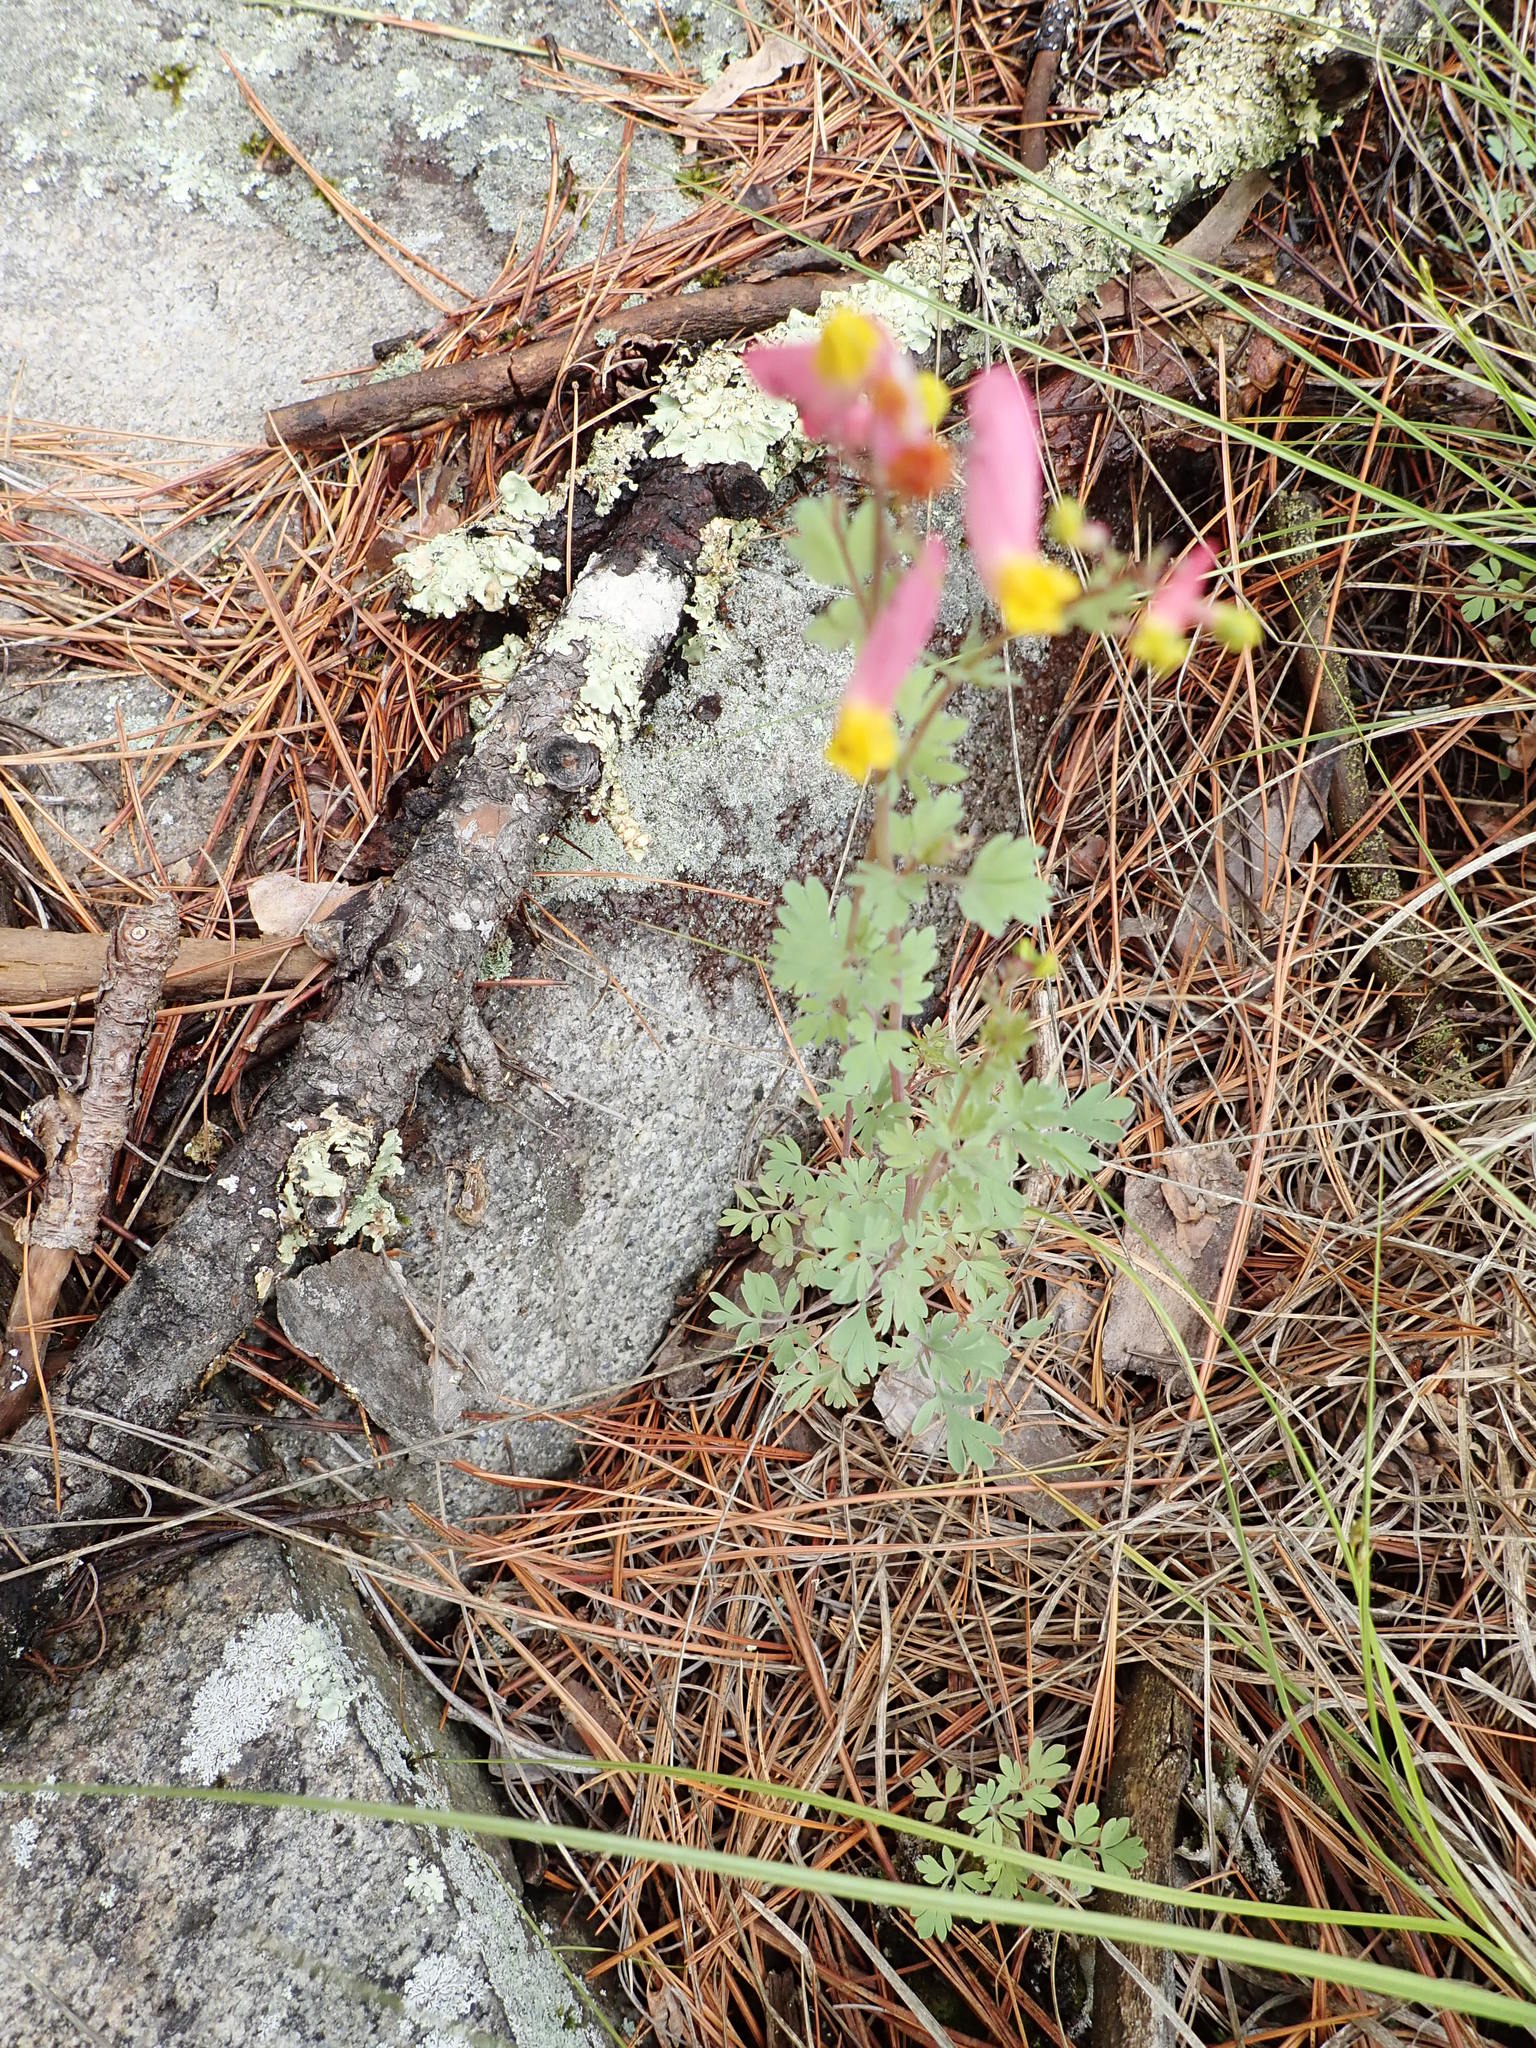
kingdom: Plantae
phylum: Tracheophyta
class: Magnoliopsida
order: Ranunculales
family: Papaveraceae
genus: Capnoides
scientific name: Capnoides sempervirens
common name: Rock harlequin
